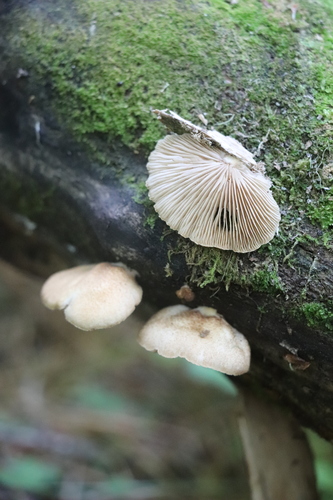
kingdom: Fungi
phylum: Basidiomycota
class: Agaricomycetes
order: Agaricales
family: Crepidotaceae
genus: Crepidotus
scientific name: Crepidotus applanatus
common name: Flat crep
